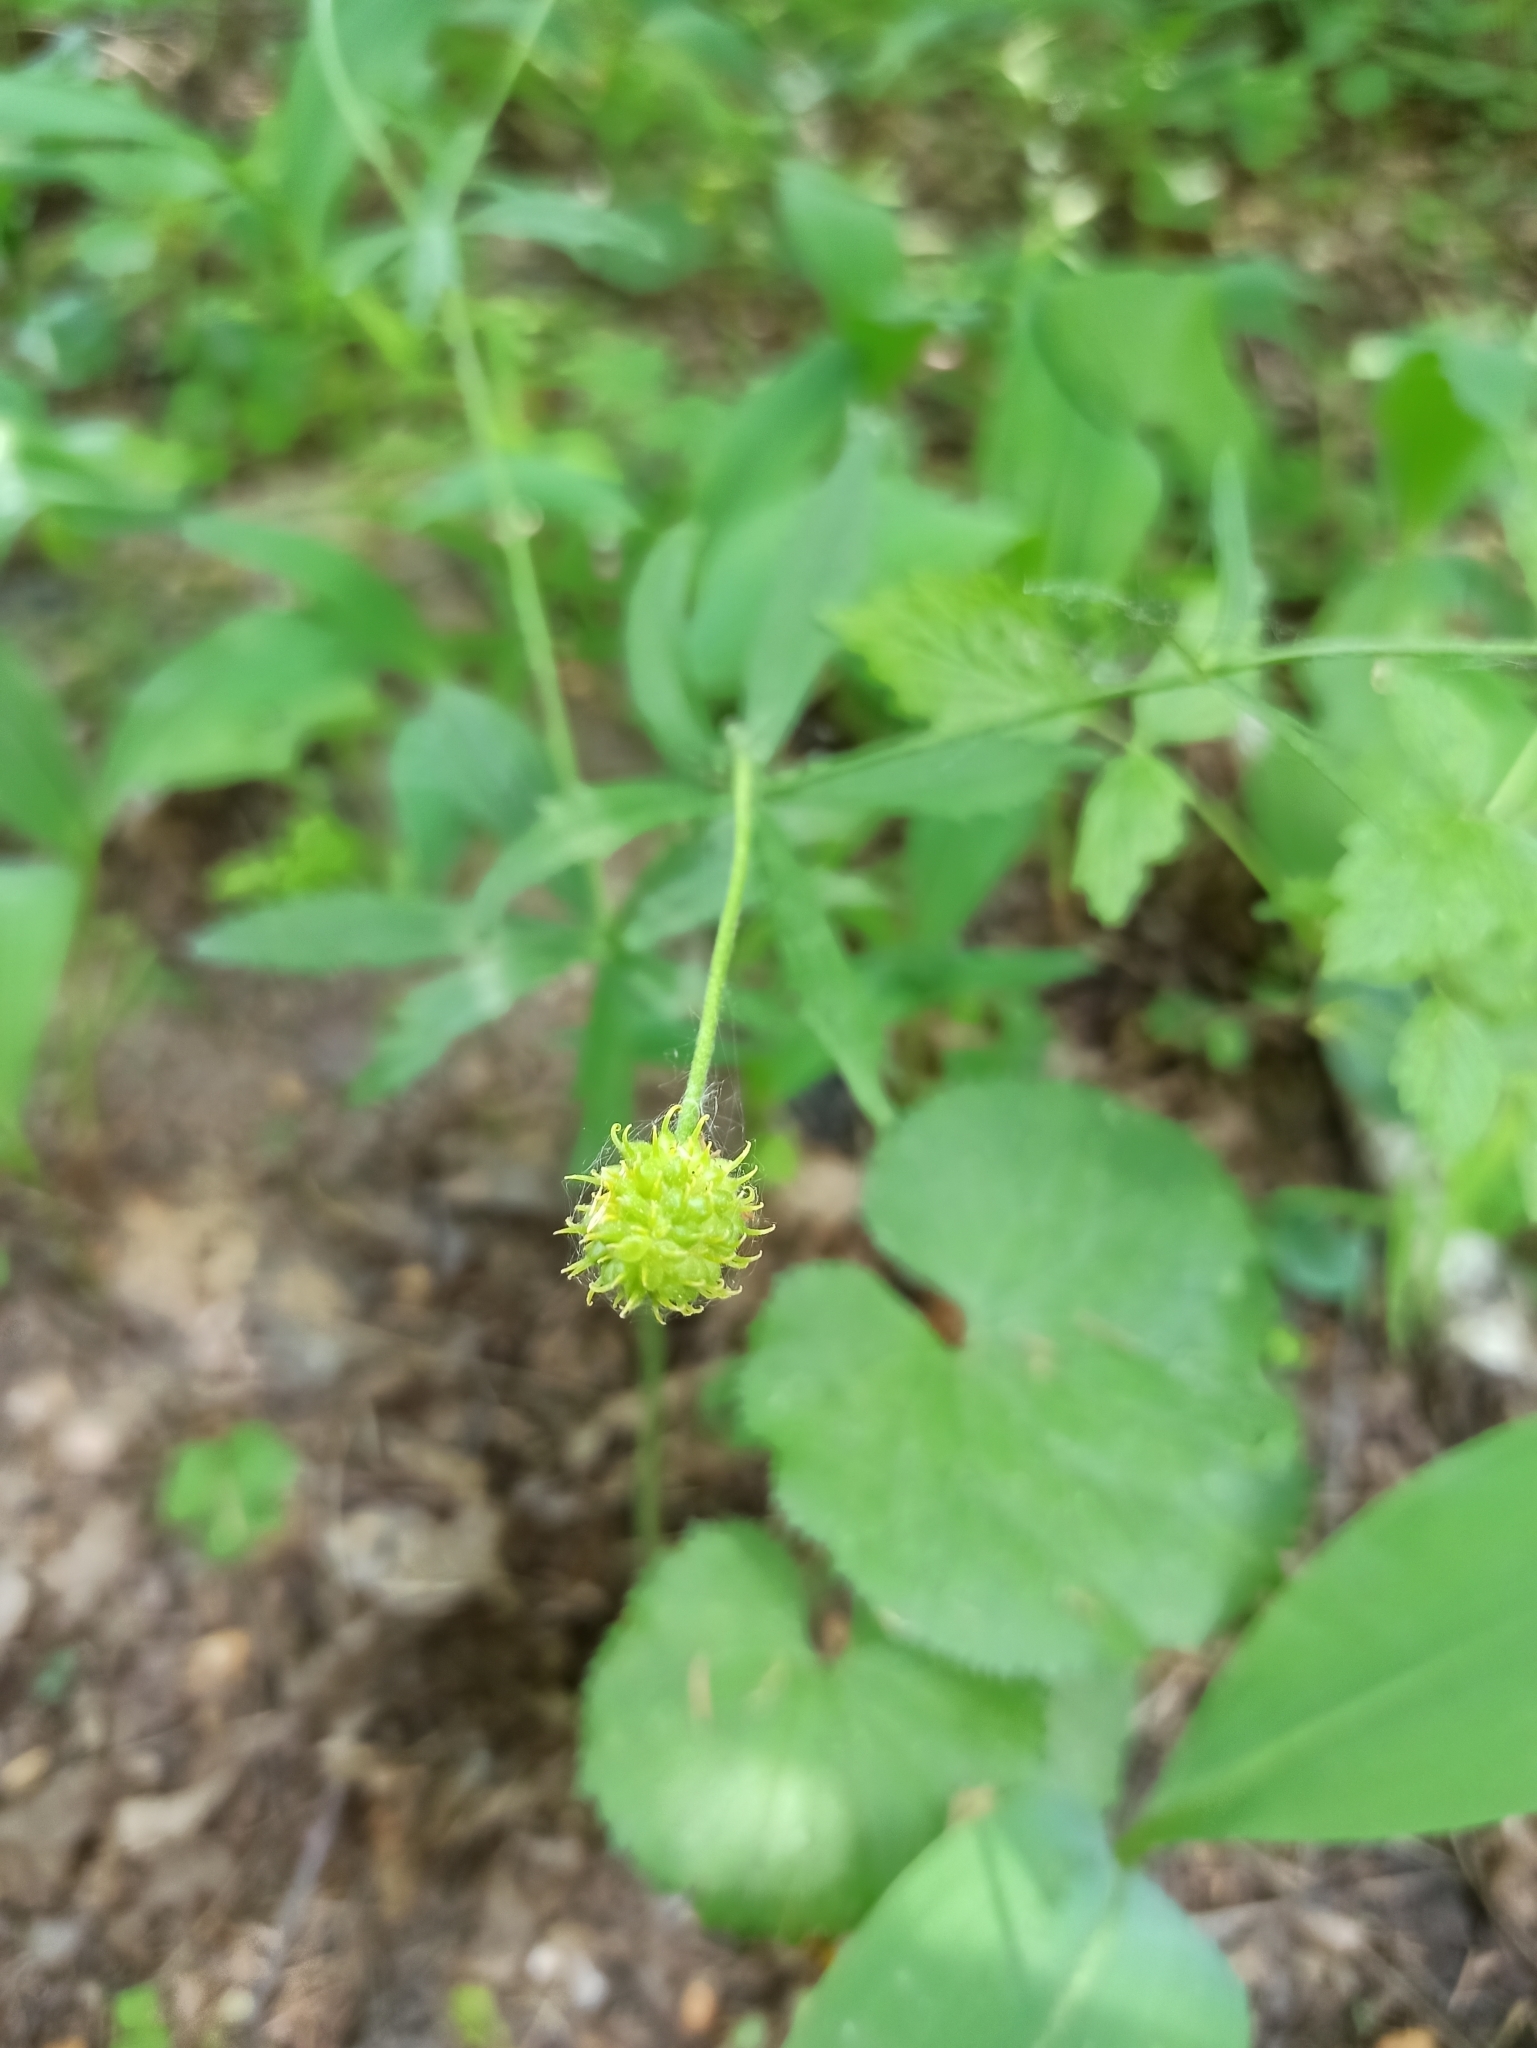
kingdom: Plantae
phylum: Tracheophyta
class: Magnoliopsida
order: Ranunculales
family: Ranunculaceae
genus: Ranunculus
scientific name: Ranunculus cassubicus
